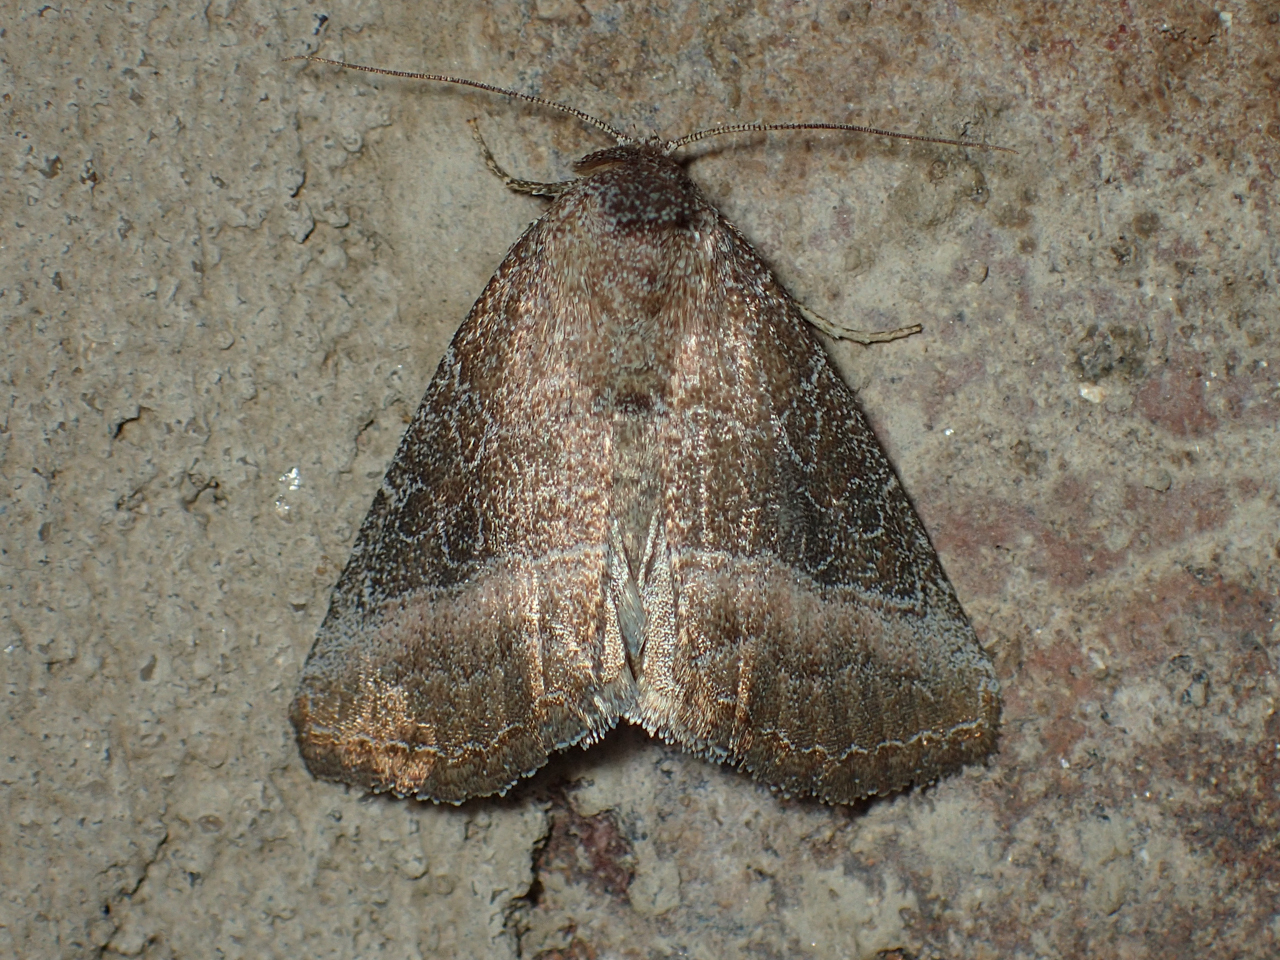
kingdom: Animalia
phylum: Arthropoda
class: Insecta
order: Lepidoptera
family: Noctuidae
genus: Ogdoconta
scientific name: Ogdoconta cinereola
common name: Common pinkband
